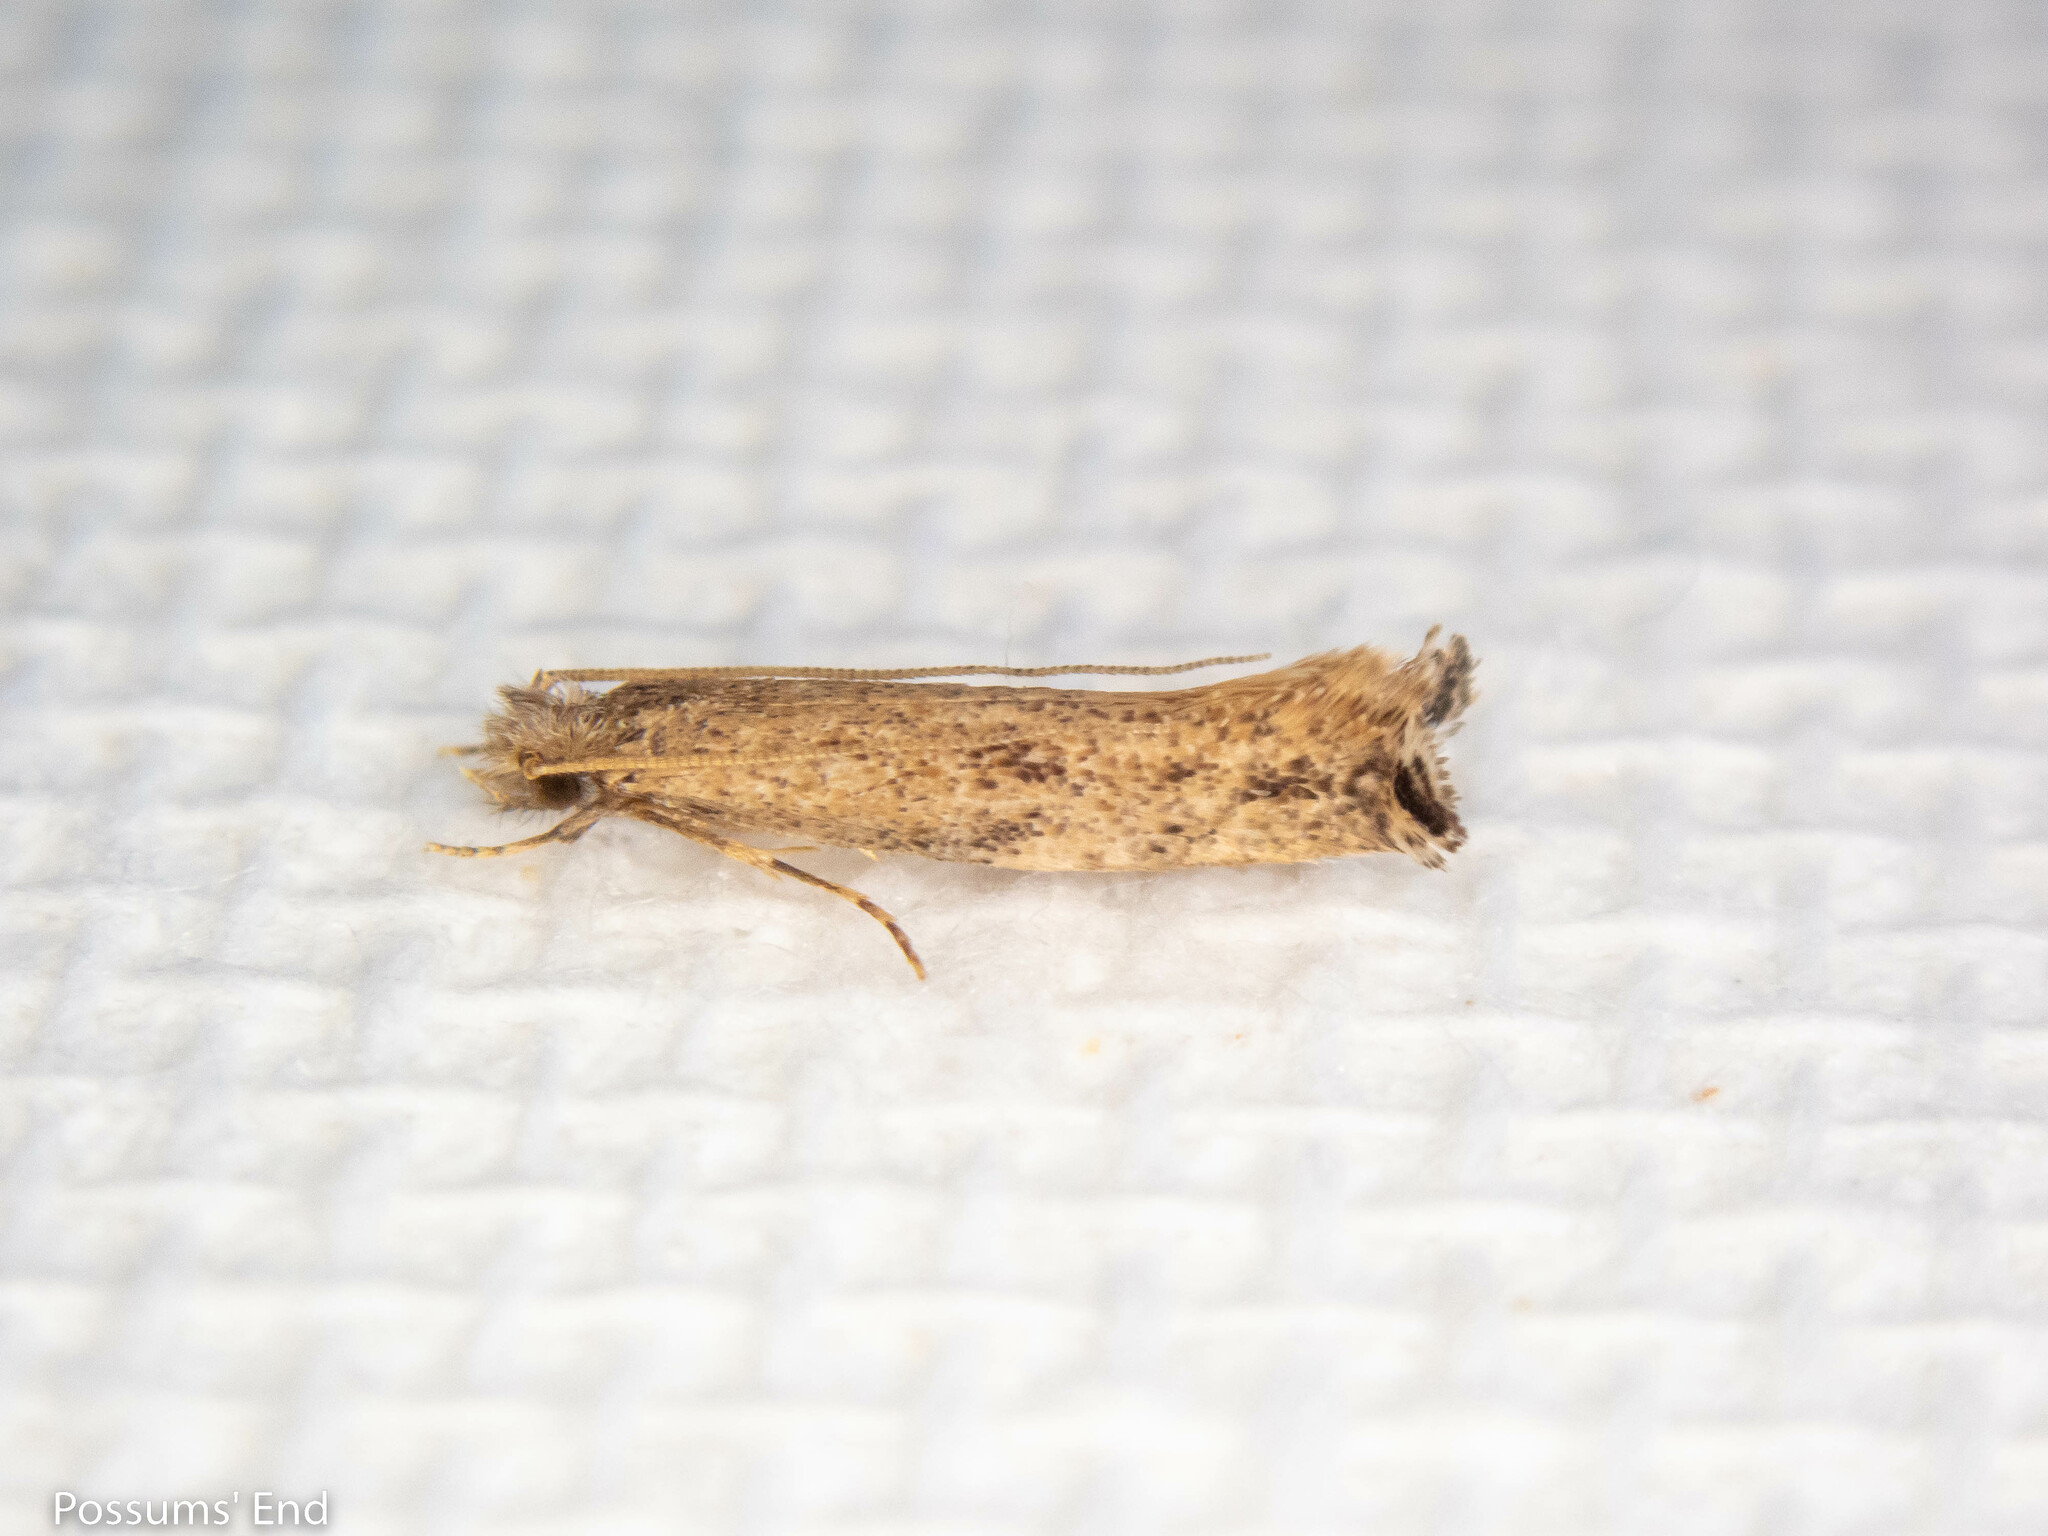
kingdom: Animalia
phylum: Arthropoda
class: Insecta
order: Lepidoptera
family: Tineidae
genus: Erechthias
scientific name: Erechthias acrodina
